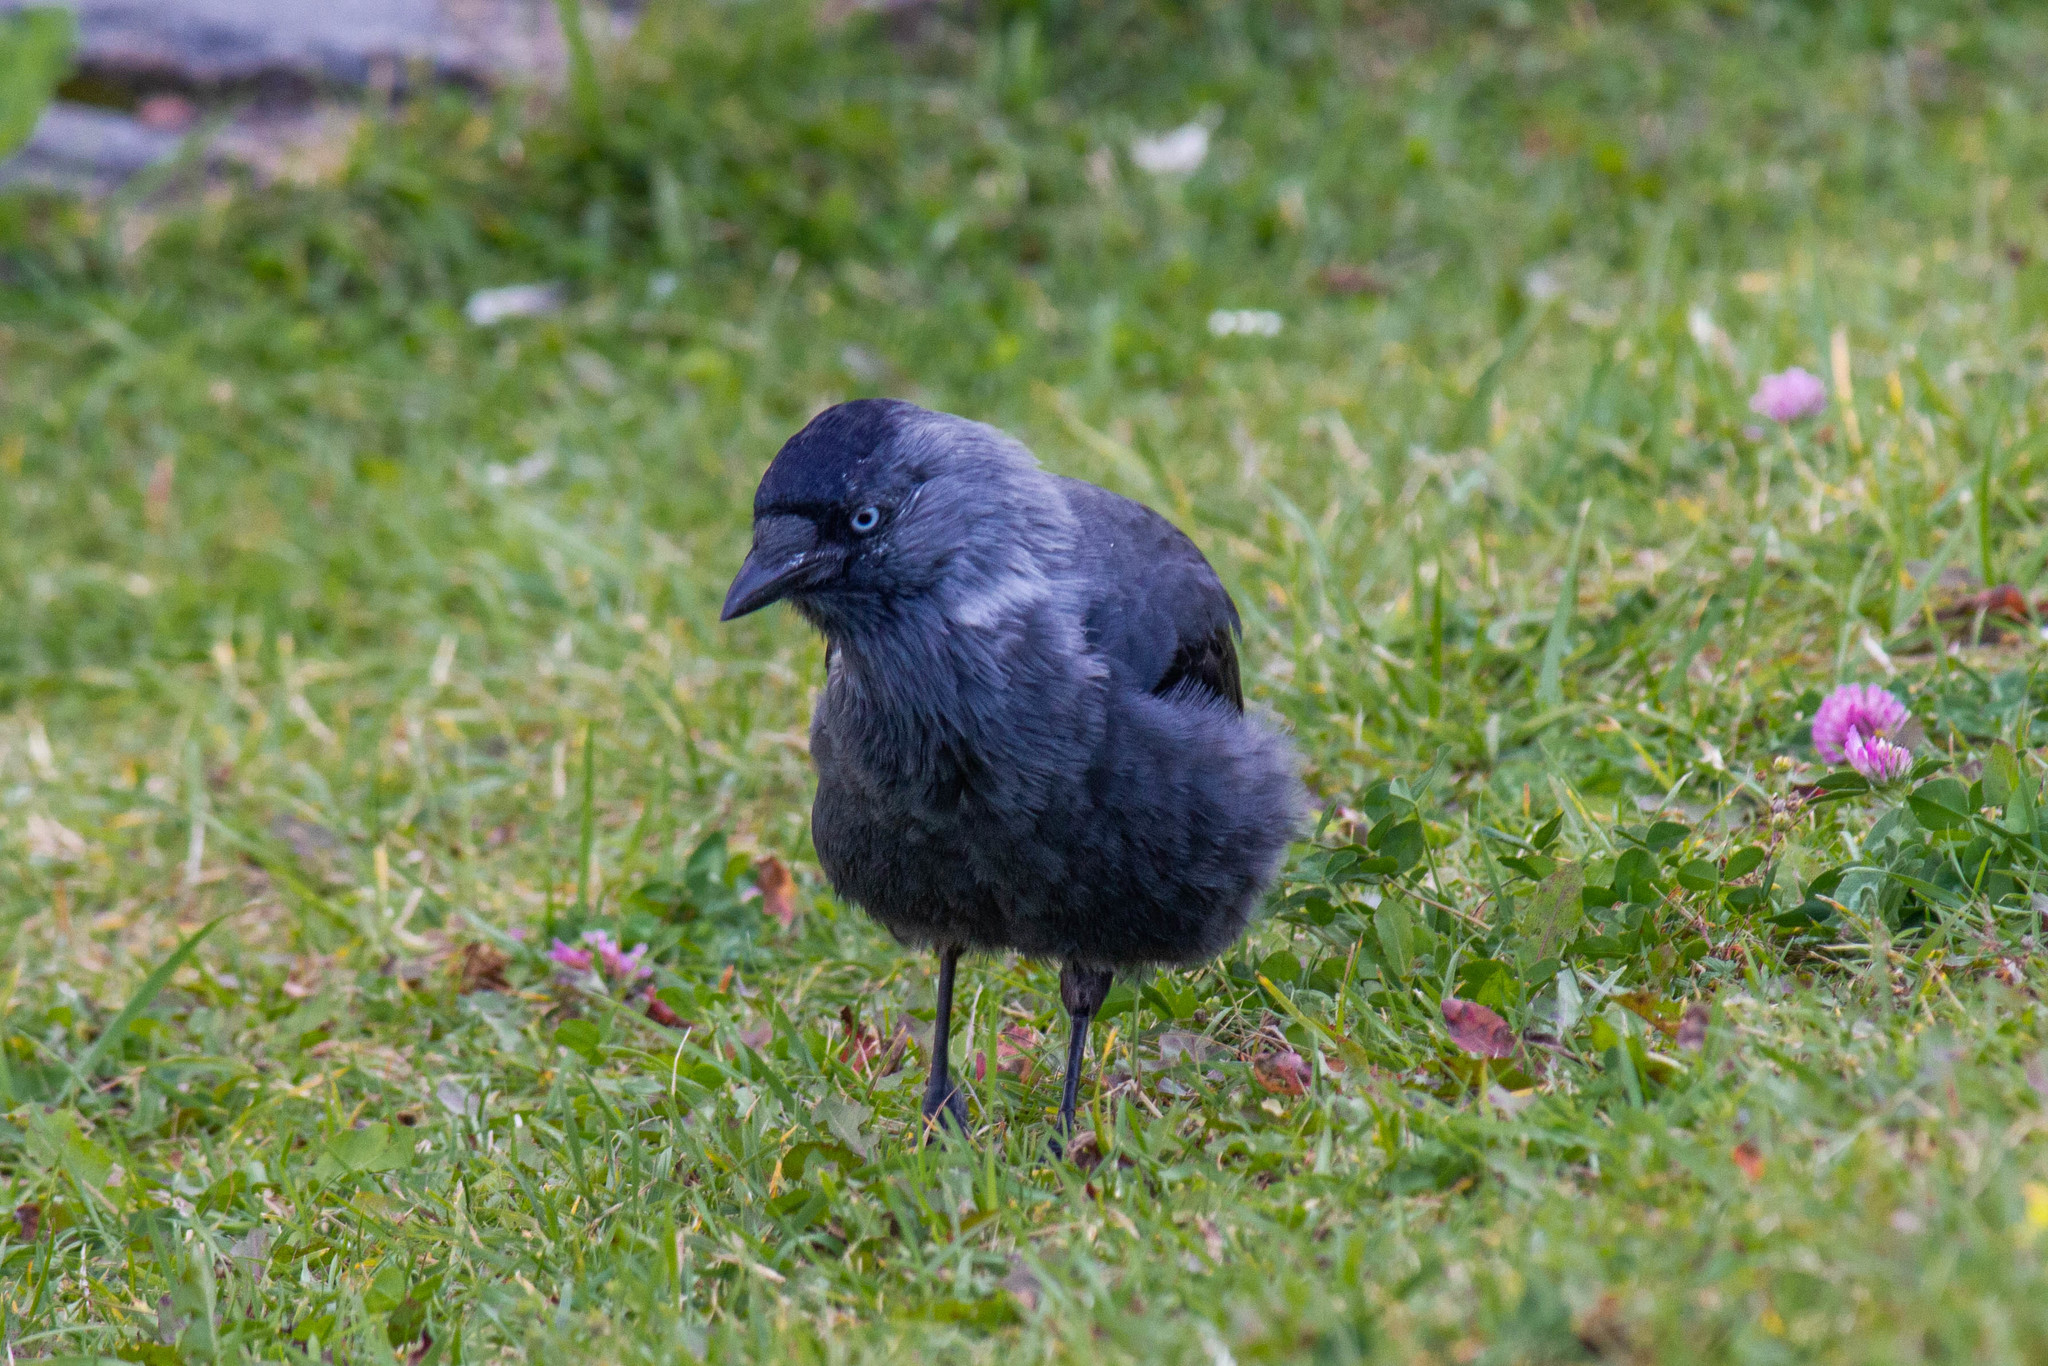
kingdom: Animalia
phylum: Chordata
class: Aves
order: Passeriformes
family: Corvidae
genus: Coloeus
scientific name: Coloeus monedula
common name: Western jackdaw
